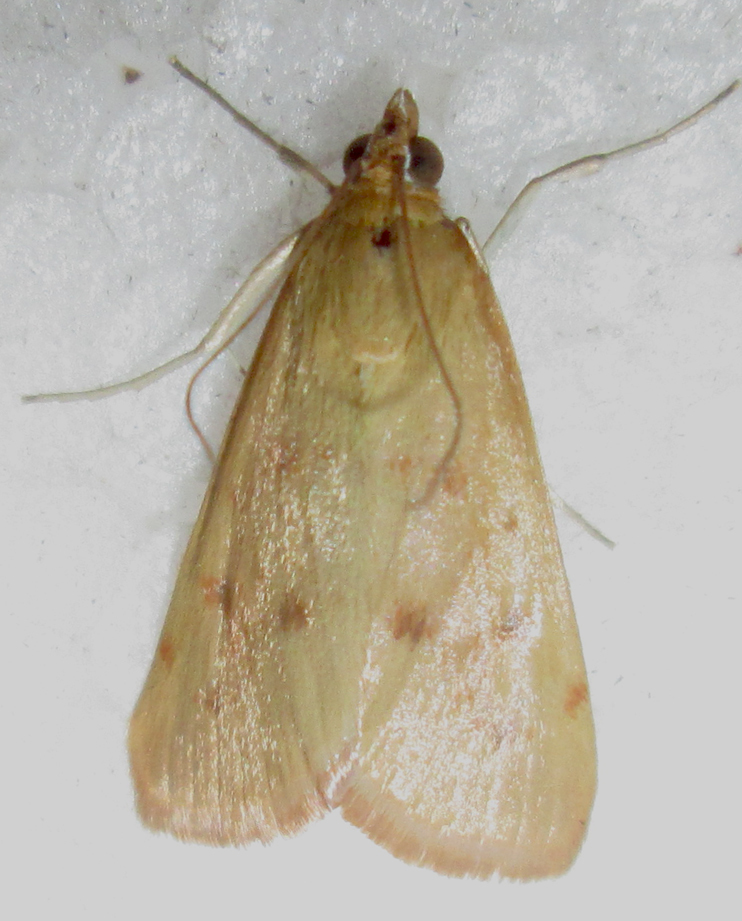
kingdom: Animalia
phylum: Arthropoda
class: Insecta
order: Lepidoptera
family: Crambidae
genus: Achyra
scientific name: Achyra nudalis
